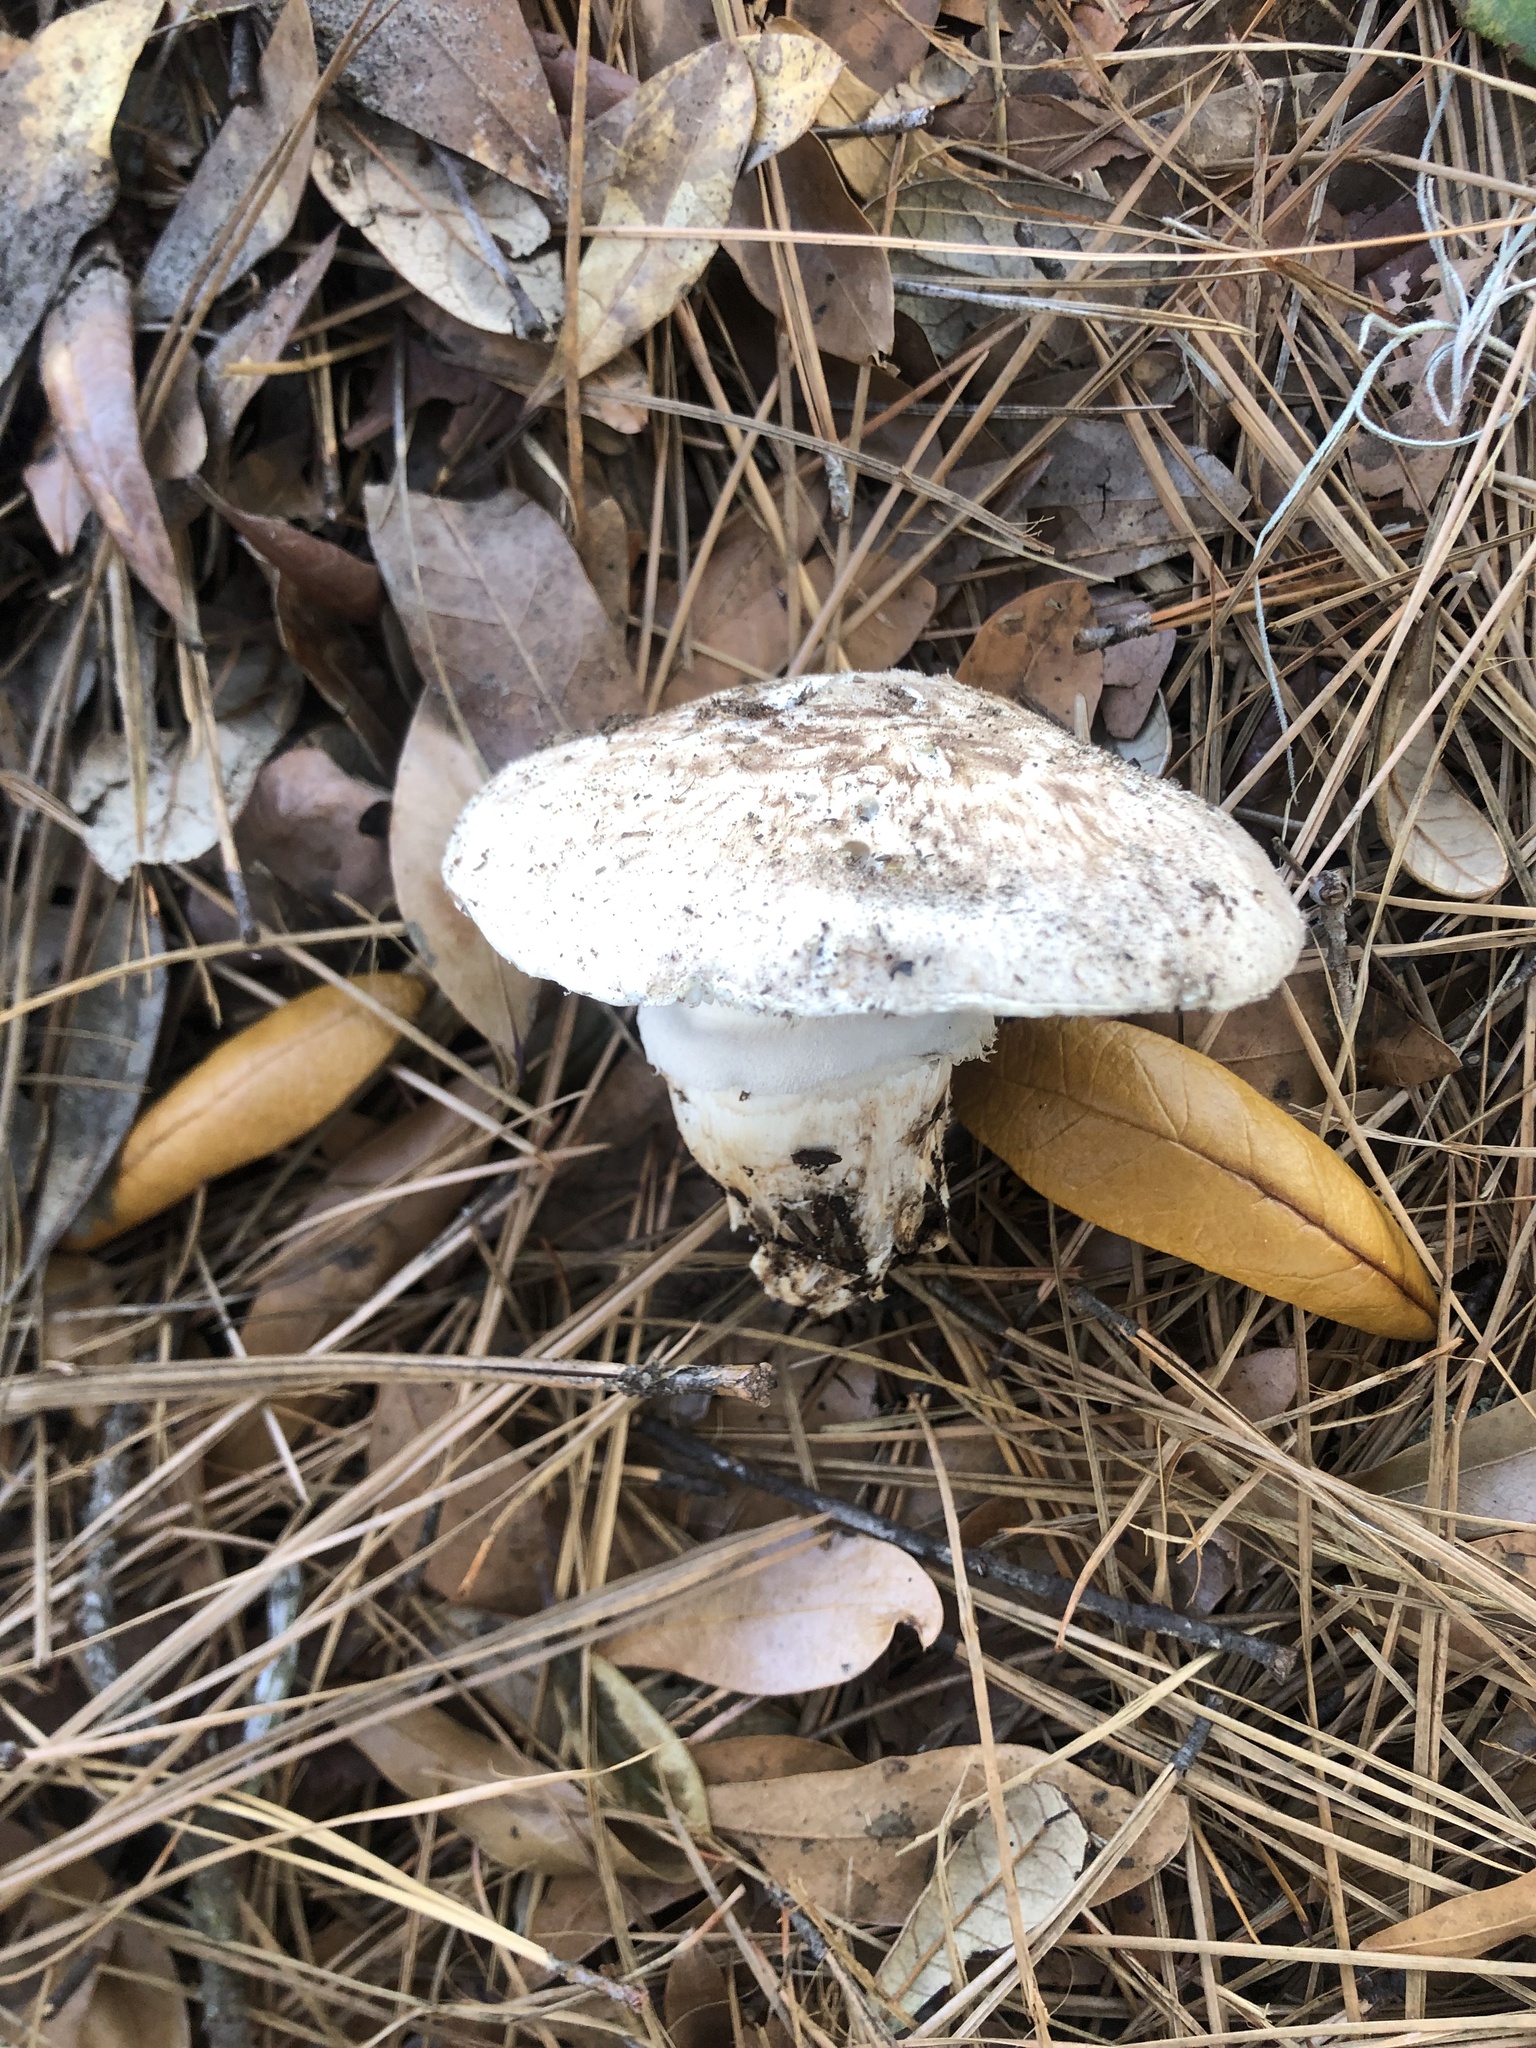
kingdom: Fungi
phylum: Basidiomycota
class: Agaricomycetes
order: Agaricales
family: Tricholomataceae
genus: Tricholoma
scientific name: Tricholoma caligatum
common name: True booted knight
